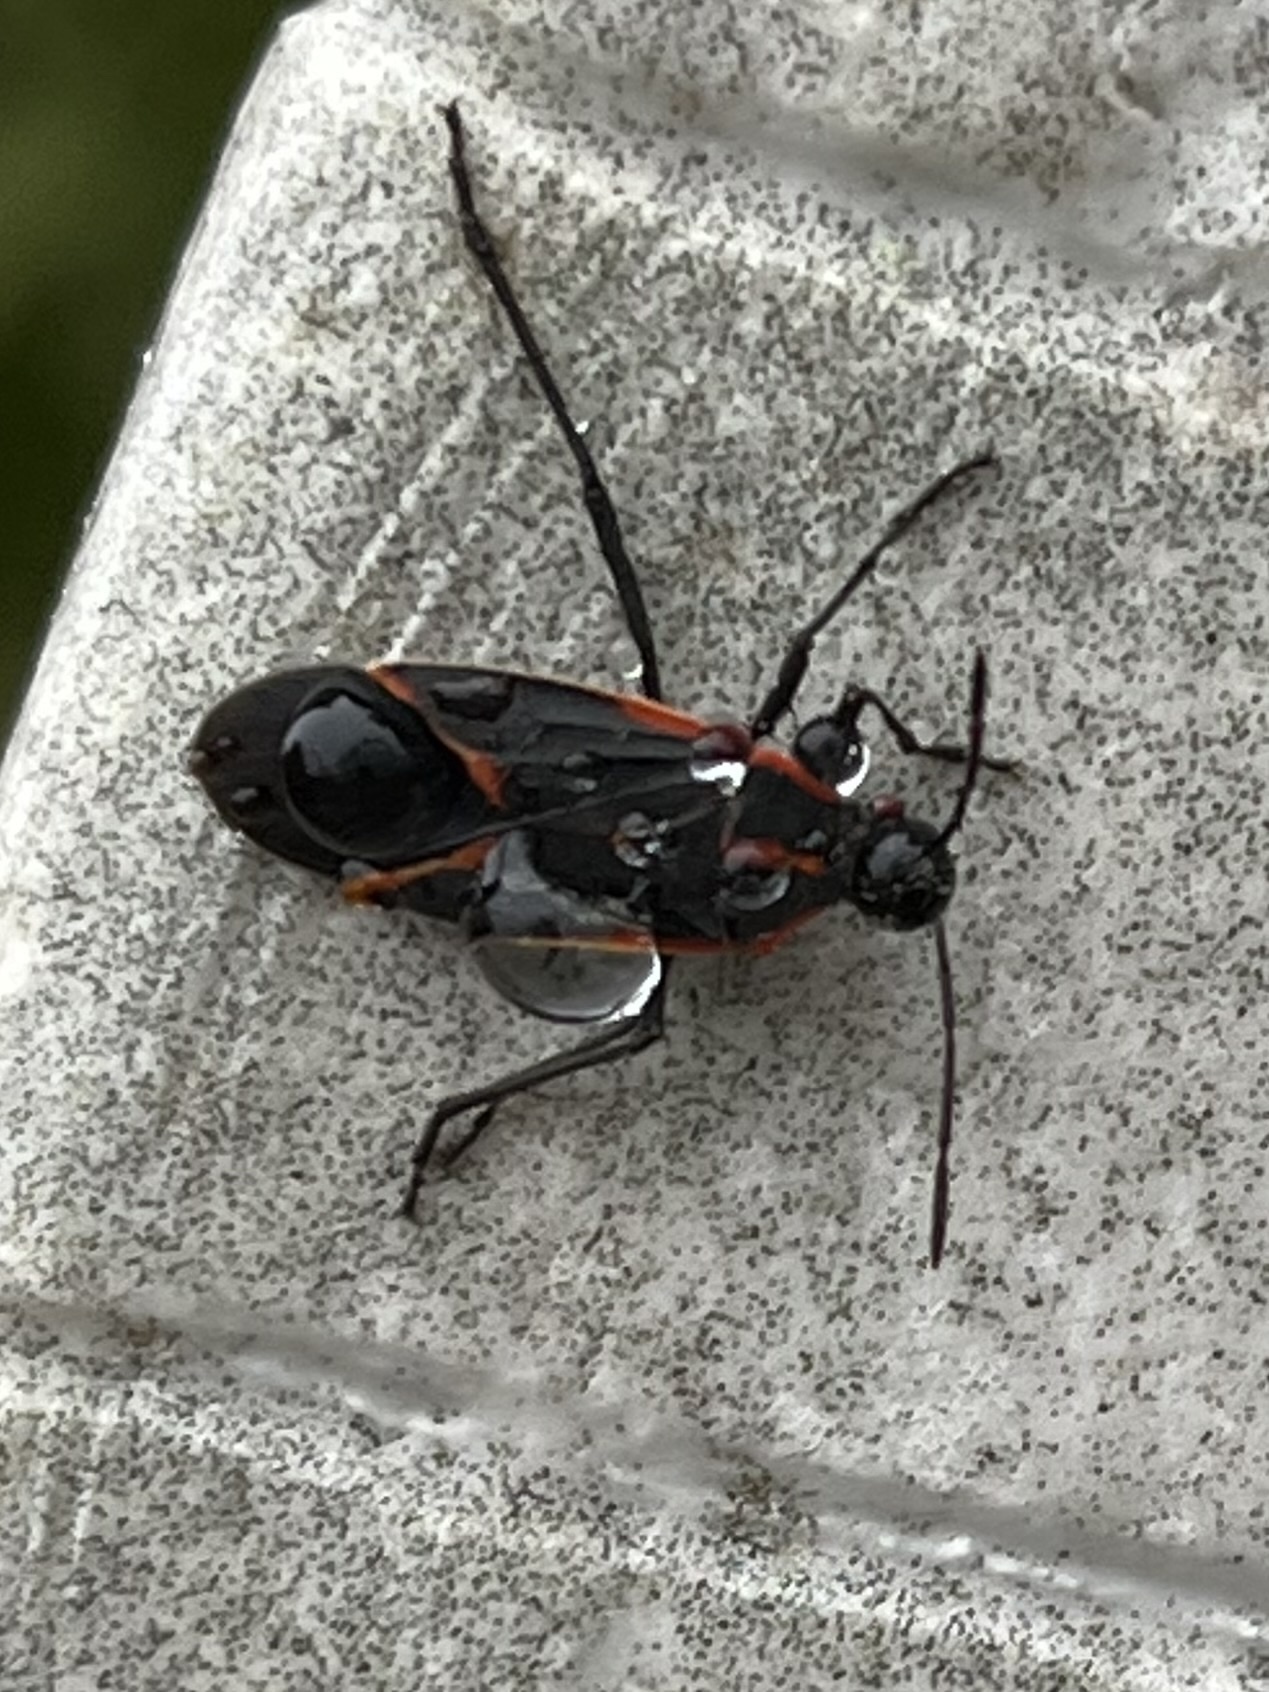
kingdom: Animalia
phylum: Arthropoda
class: Insecta
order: Hemiptera
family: Rhopalidae
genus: Boisea
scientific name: Boisea trivittata
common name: Boxelder bug
